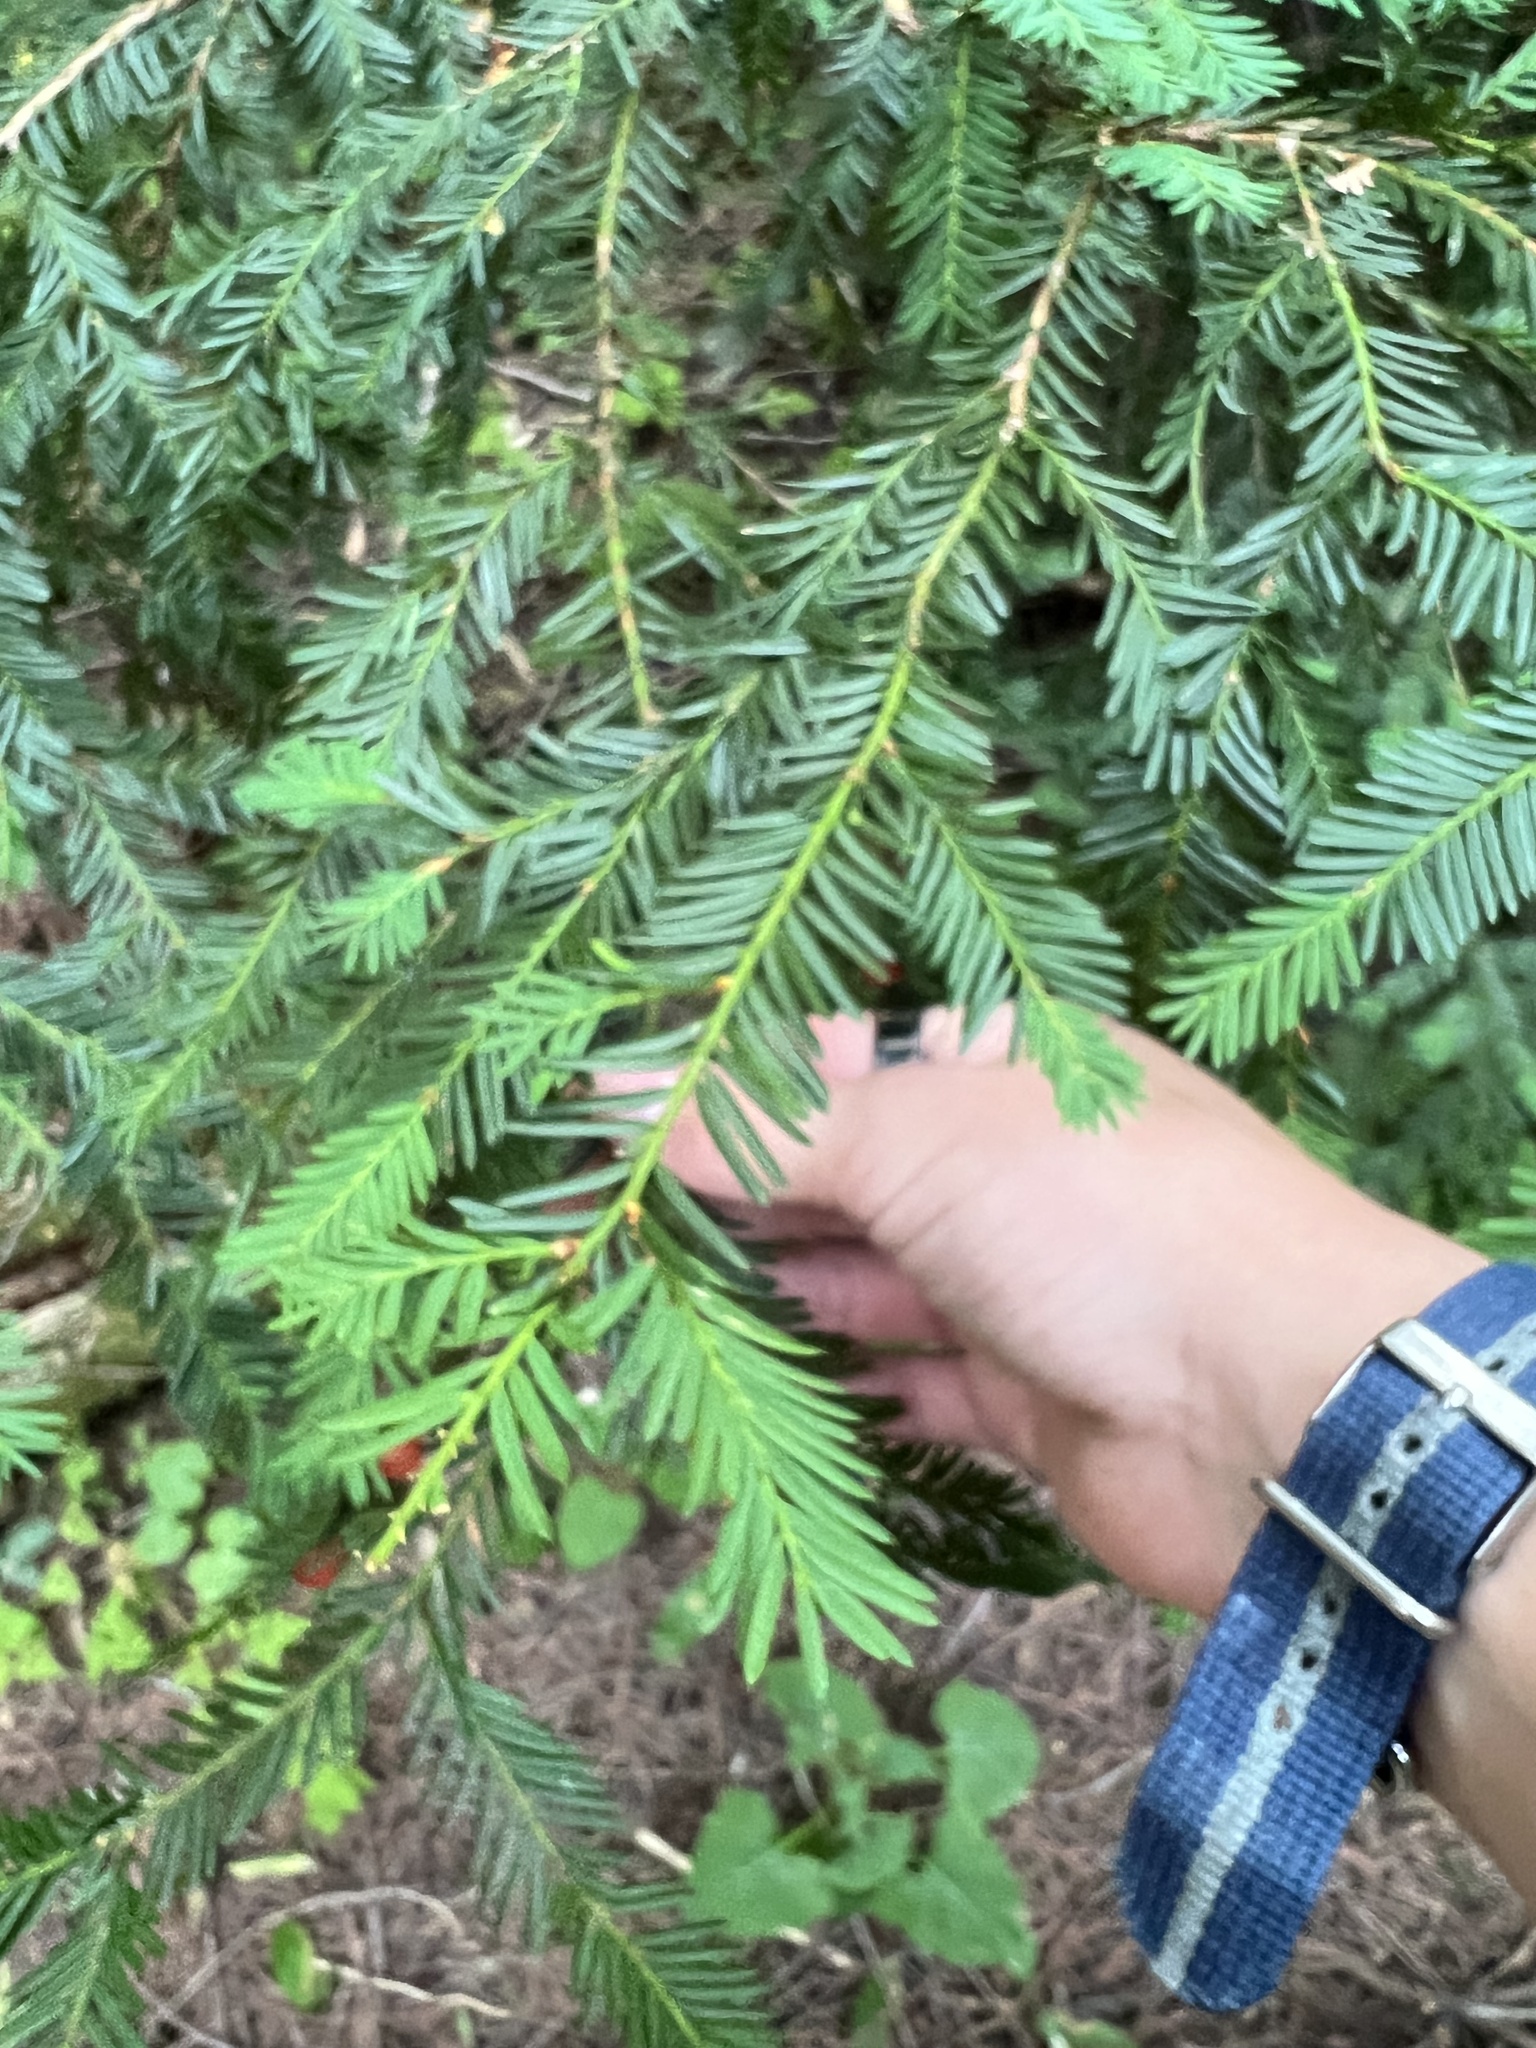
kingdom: Plantae
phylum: Tracheophyta
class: Pinopsida
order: Pinales
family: Taxaceae
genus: Taxus
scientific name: Taxus brevifolia
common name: Pacific yew
